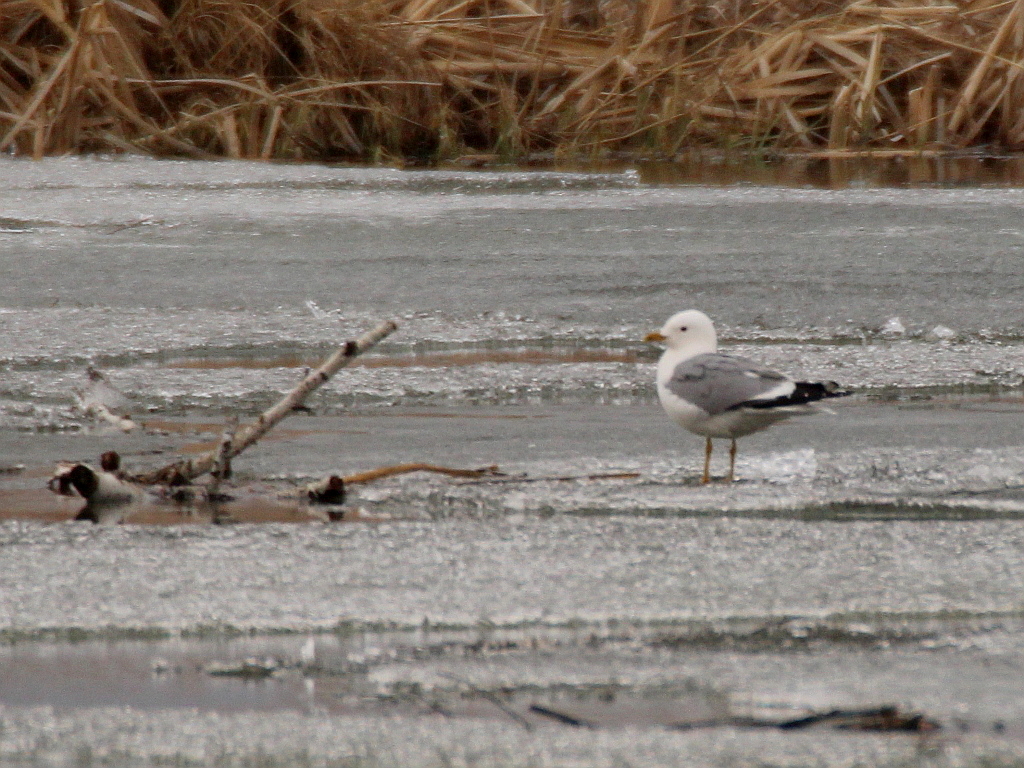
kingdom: Animalia
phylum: Chordata
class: Aves
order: Charadriiformes
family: Laridae
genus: Larus
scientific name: Larus canus
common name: Mew gull
